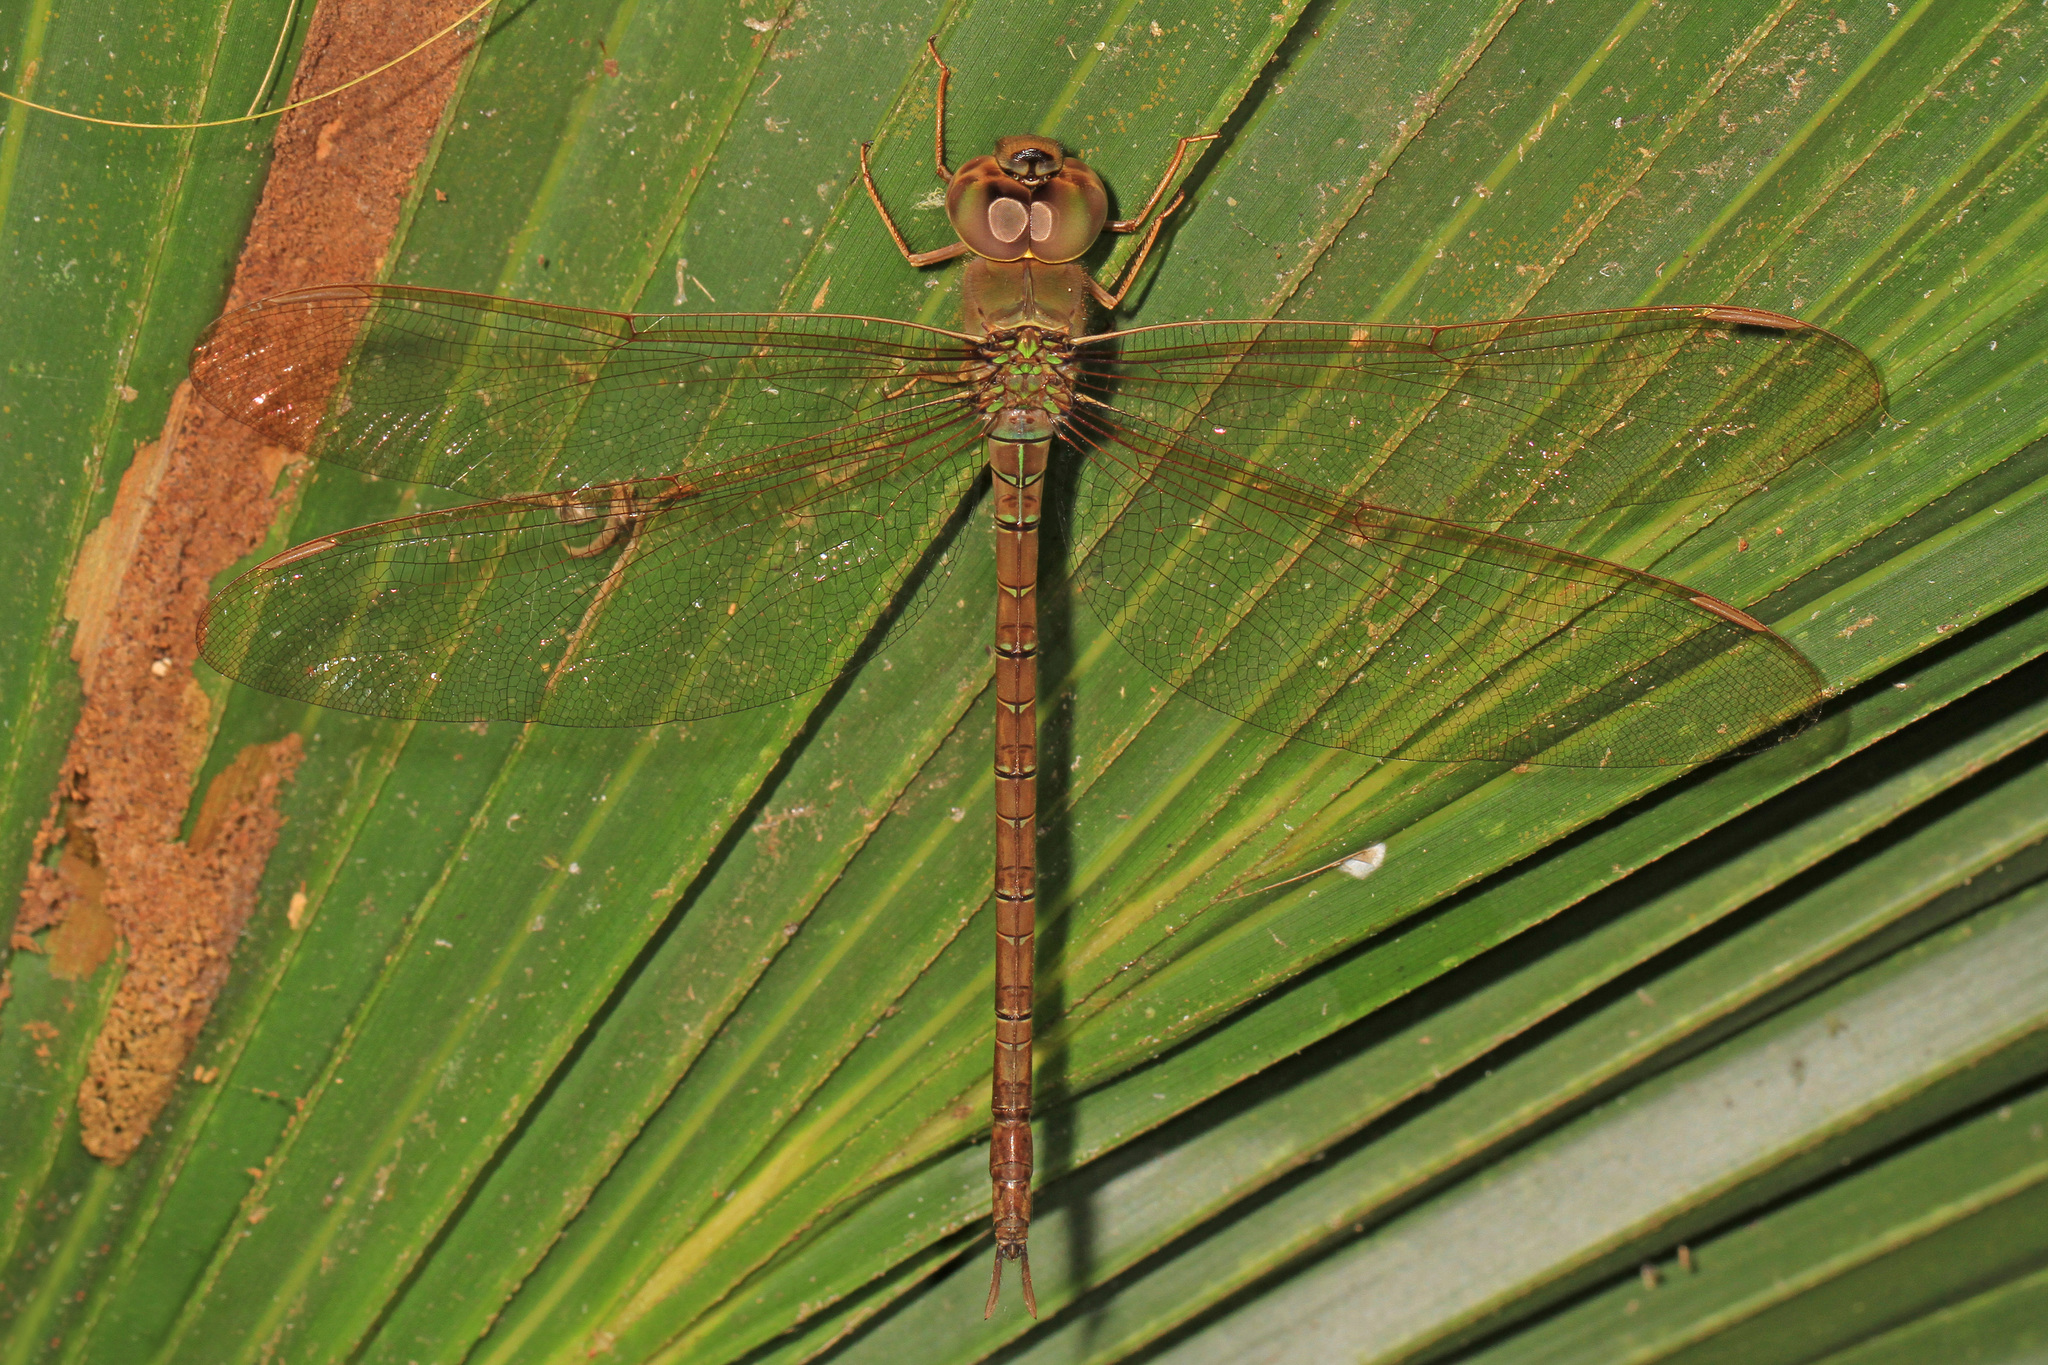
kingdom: Animalia
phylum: Arthropoda
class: Insecta
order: Odonata
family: Aeshnidae
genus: Gynacantha
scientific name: Gynacantha nervosa
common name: Twilight darner
